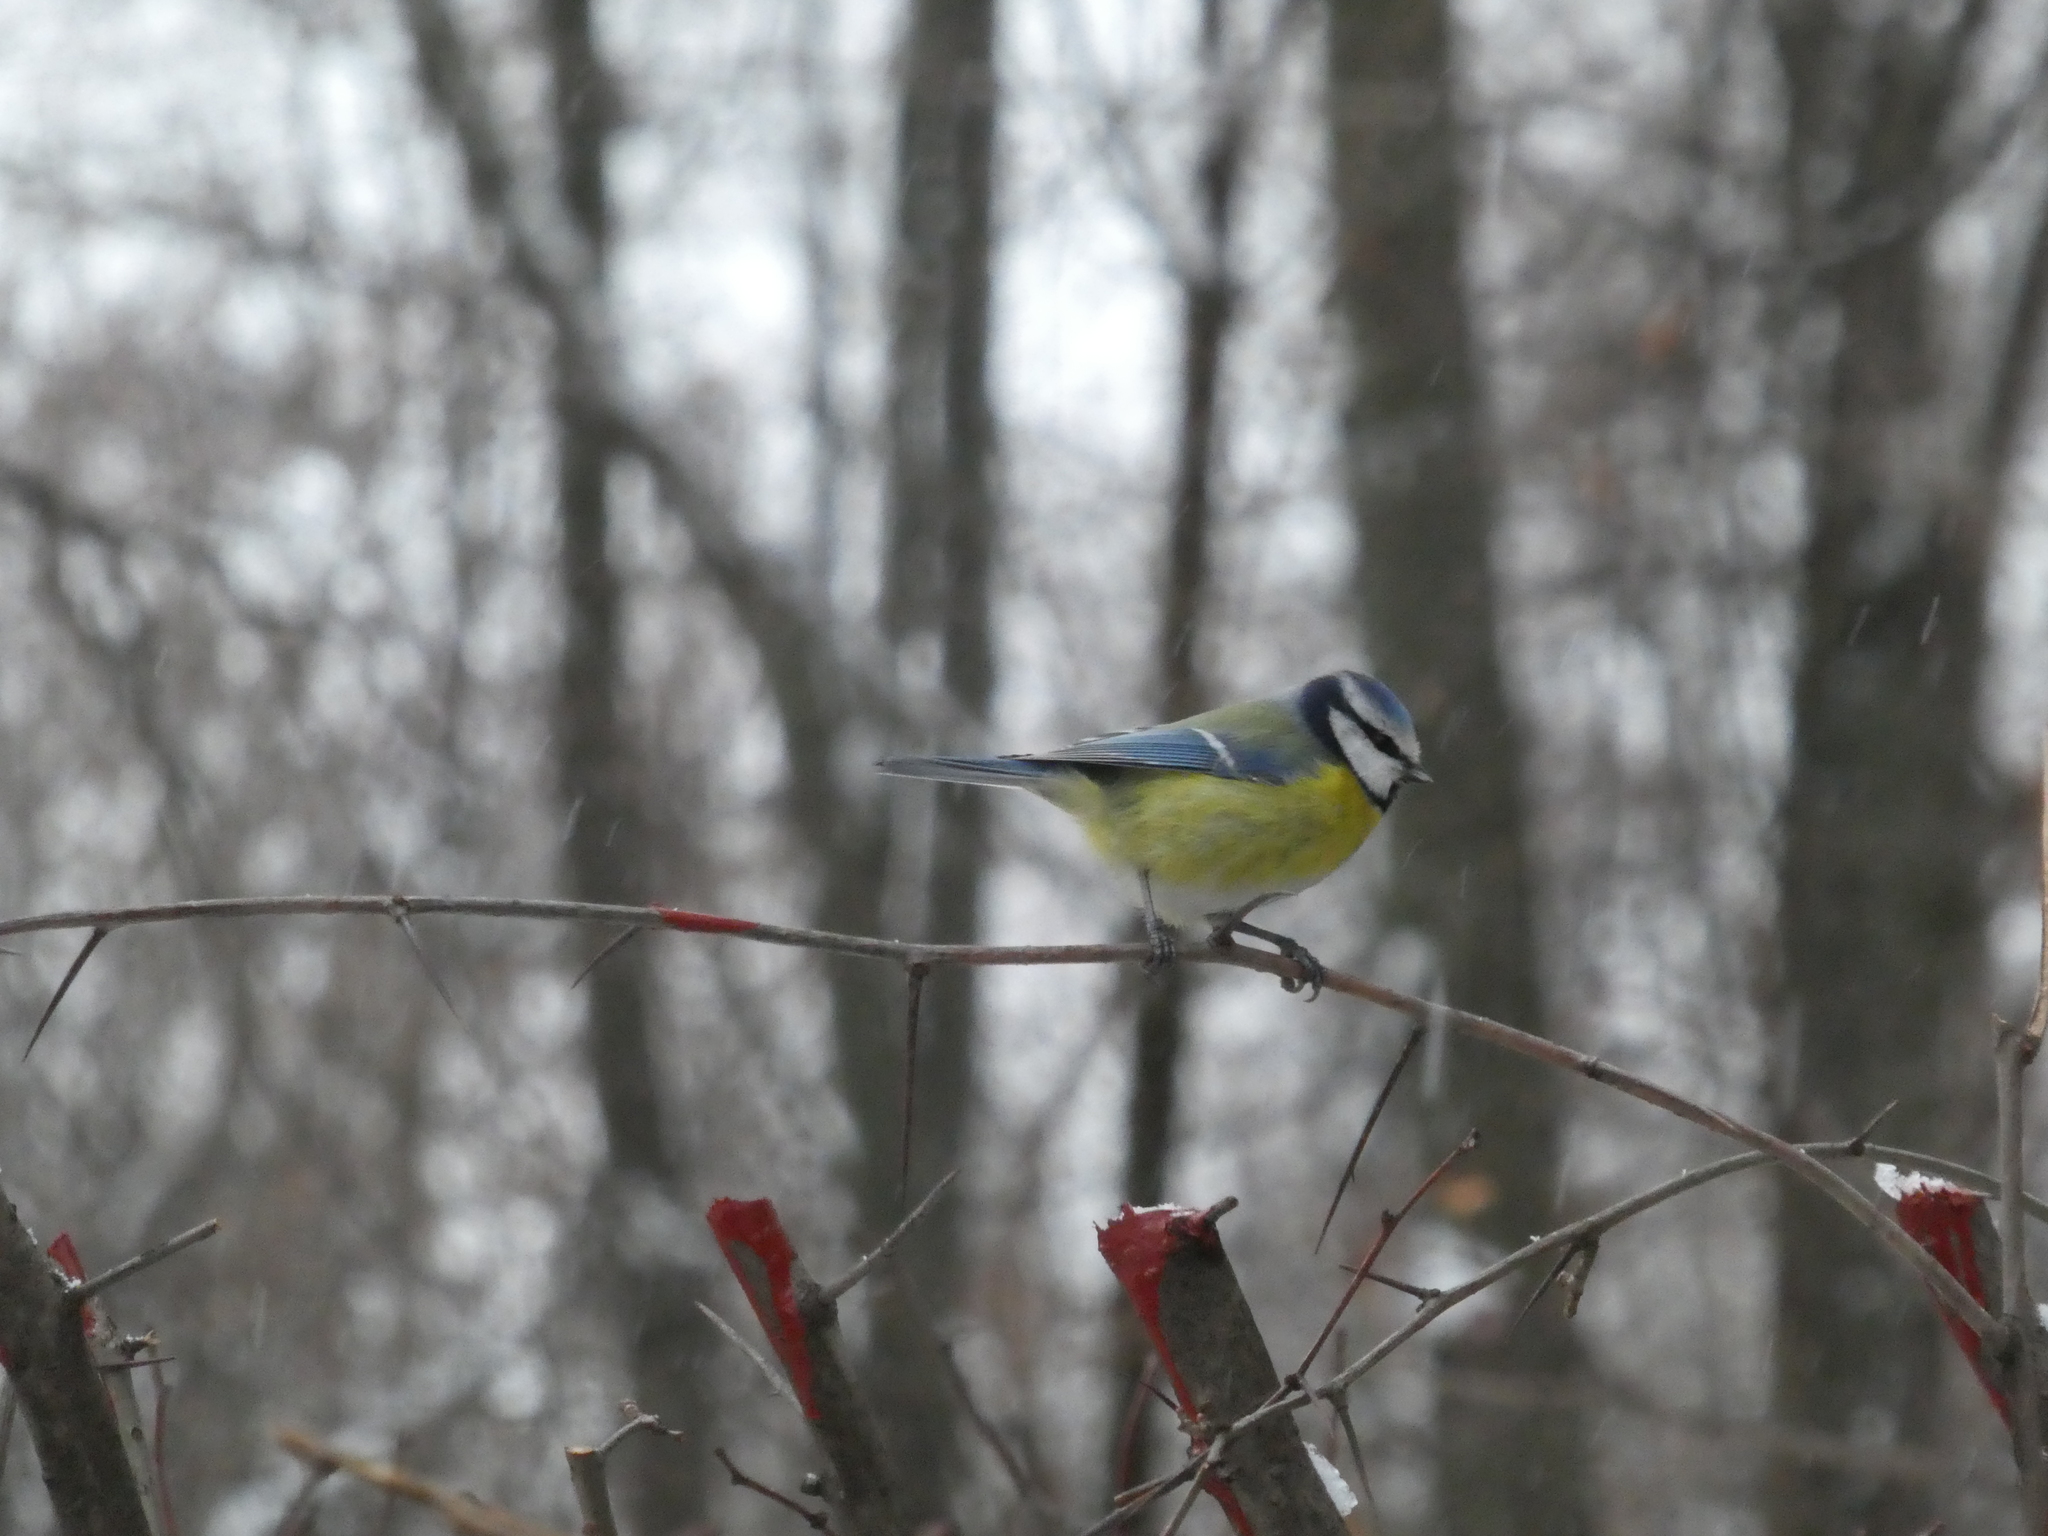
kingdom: Animalia
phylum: Chordata
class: Aves
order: Passeriformes
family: Paridae
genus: Cyanistes
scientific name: Cyanistes caeruleus
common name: Eurasian blue tit
